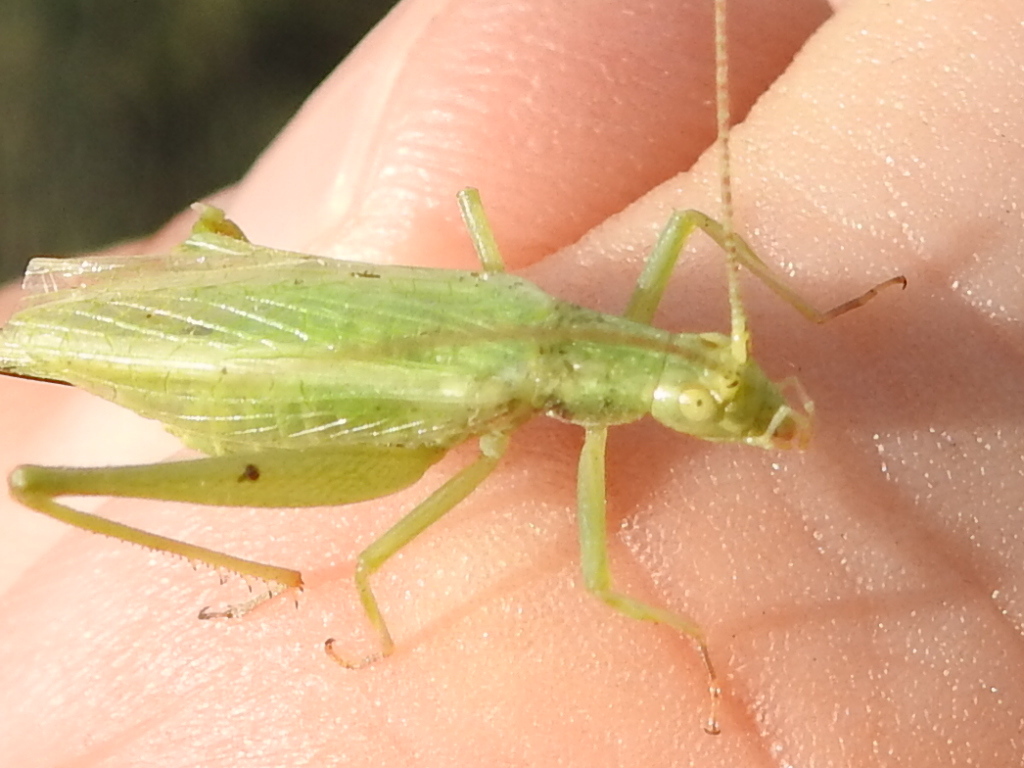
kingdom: Animalia
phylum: Arthropoda
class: Insecta
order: Orthoptera
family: Gryllidae
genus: Oecanthus
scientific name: Oecanthus celerinictus
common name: Fast-calling tree cricket
